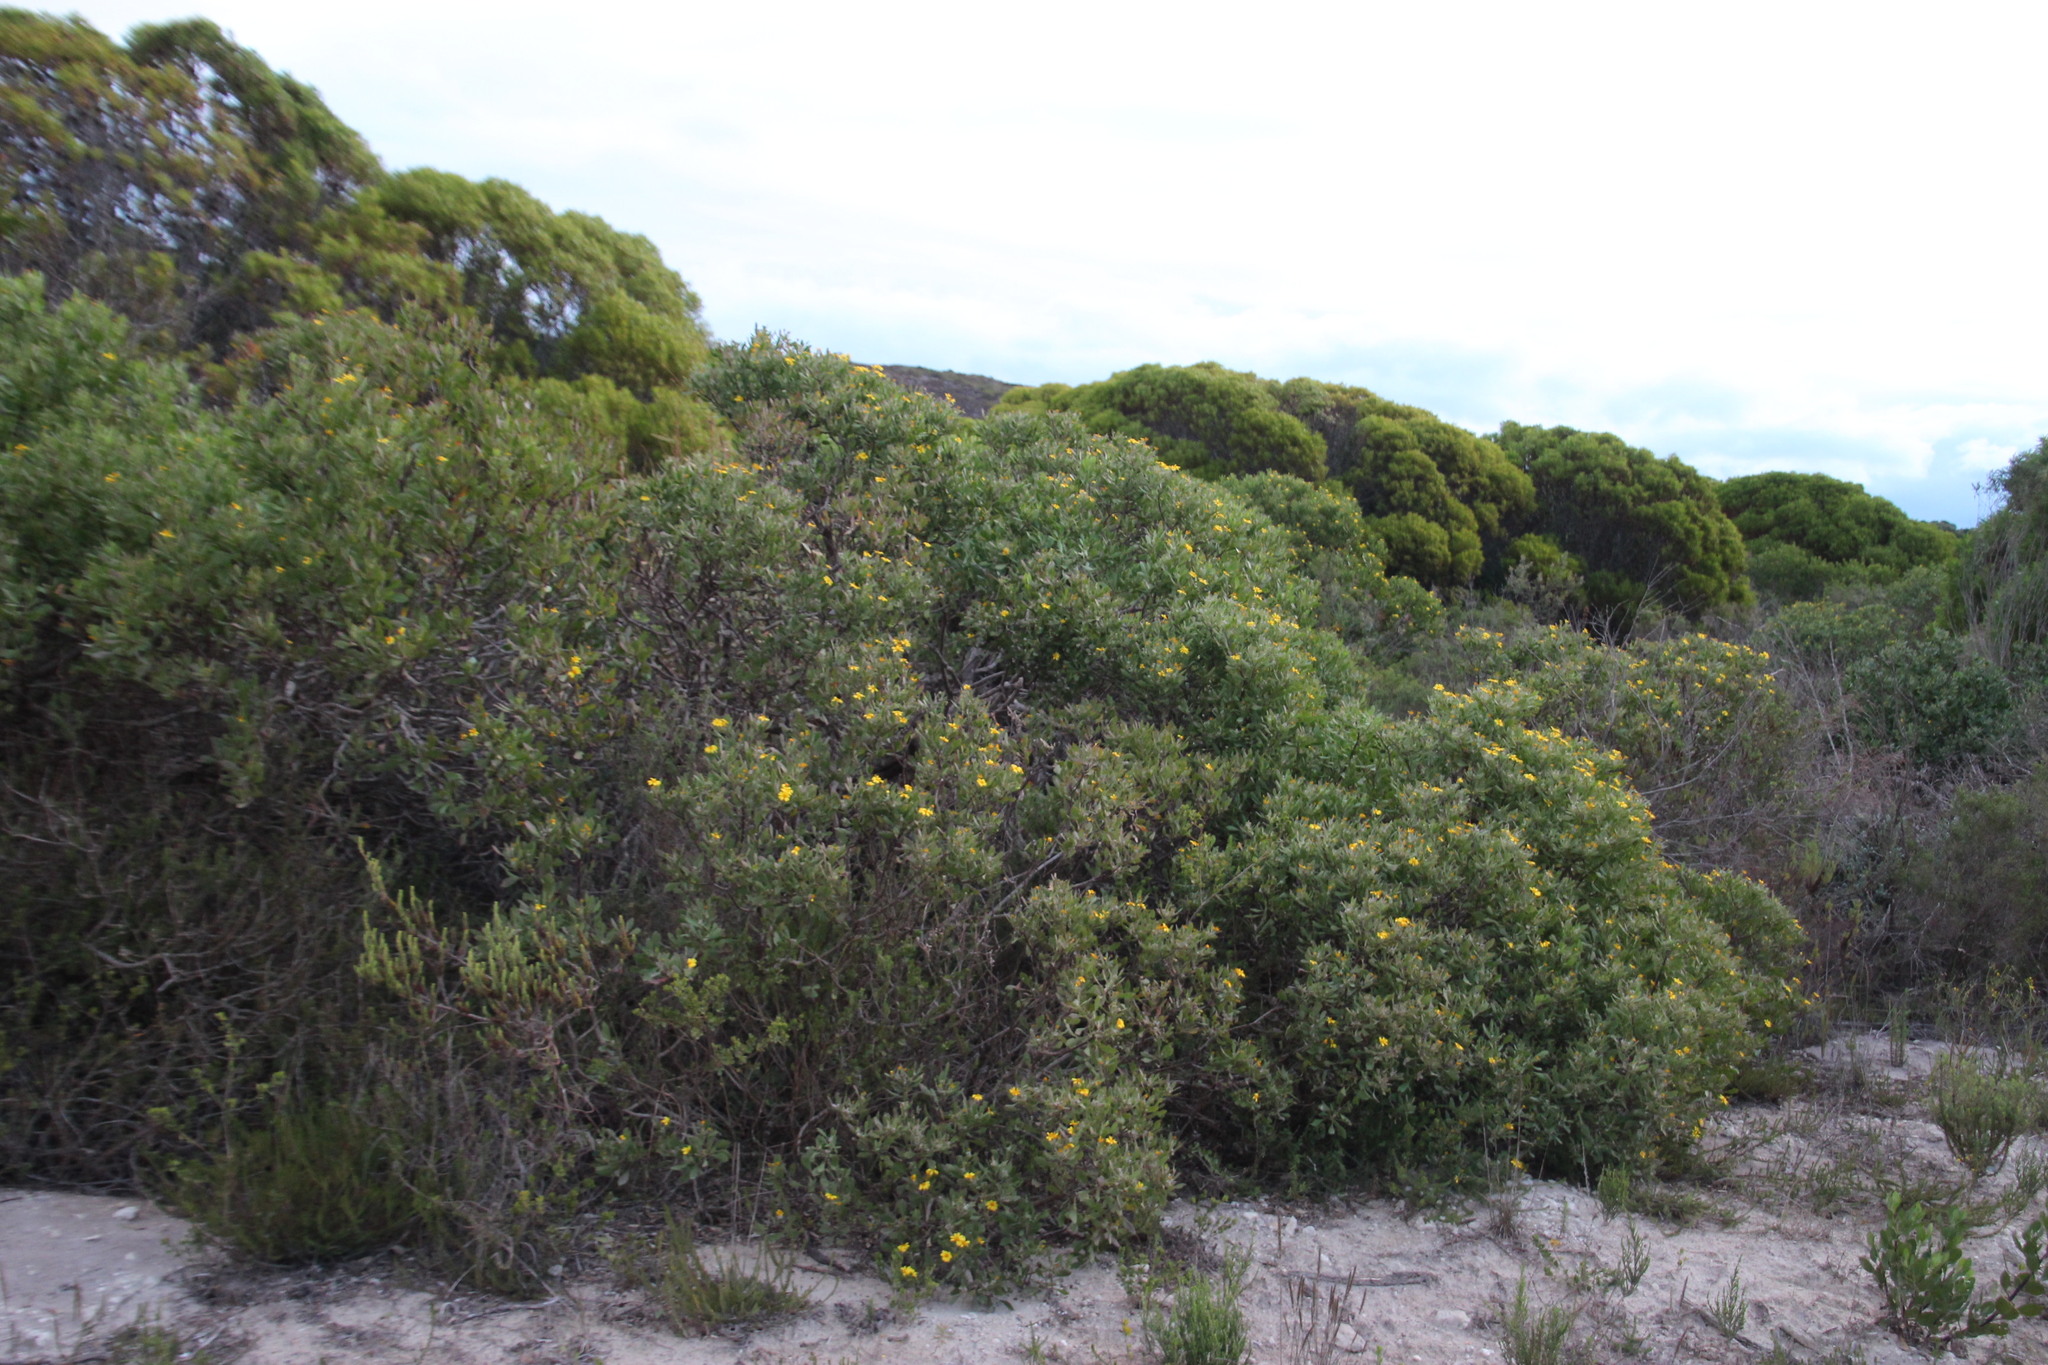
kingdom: Plantae
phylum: Tracheophyta
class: Magnoliopsida
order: Asterales
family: Asteraceae
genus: Osteospermum
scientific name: Osteospermum moniliferum
